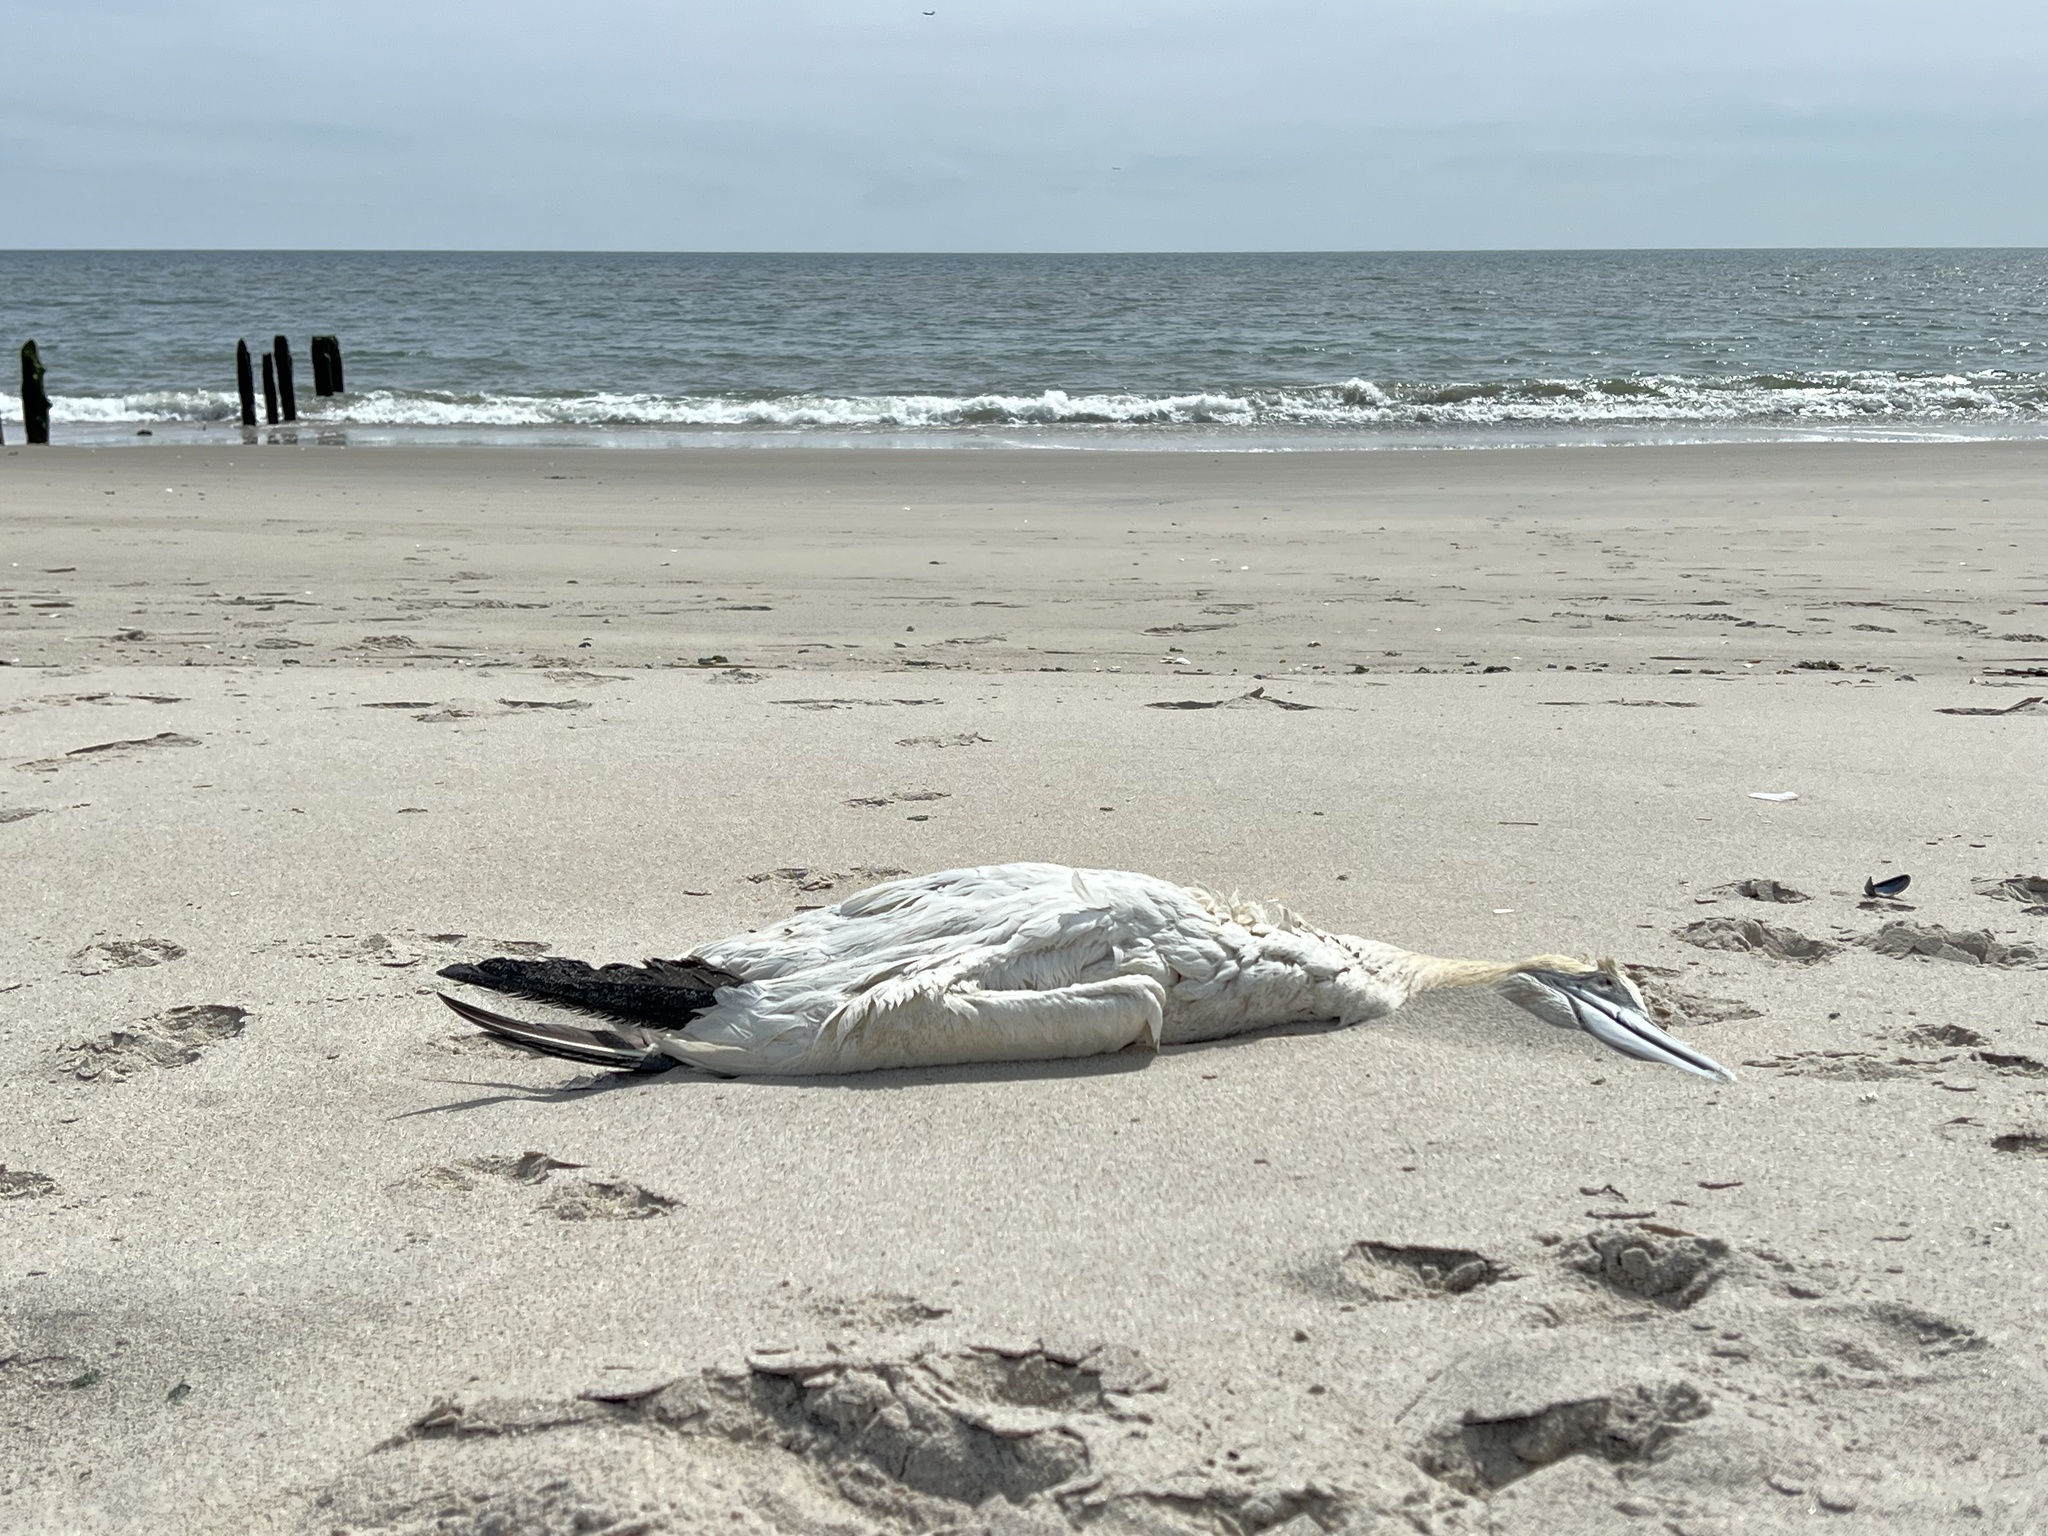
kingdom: Animalia
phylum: Chordata
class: Aves
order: Suliformes
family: Sulidae
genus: Morus
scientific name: Morus bassanus
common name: Northern gannet
